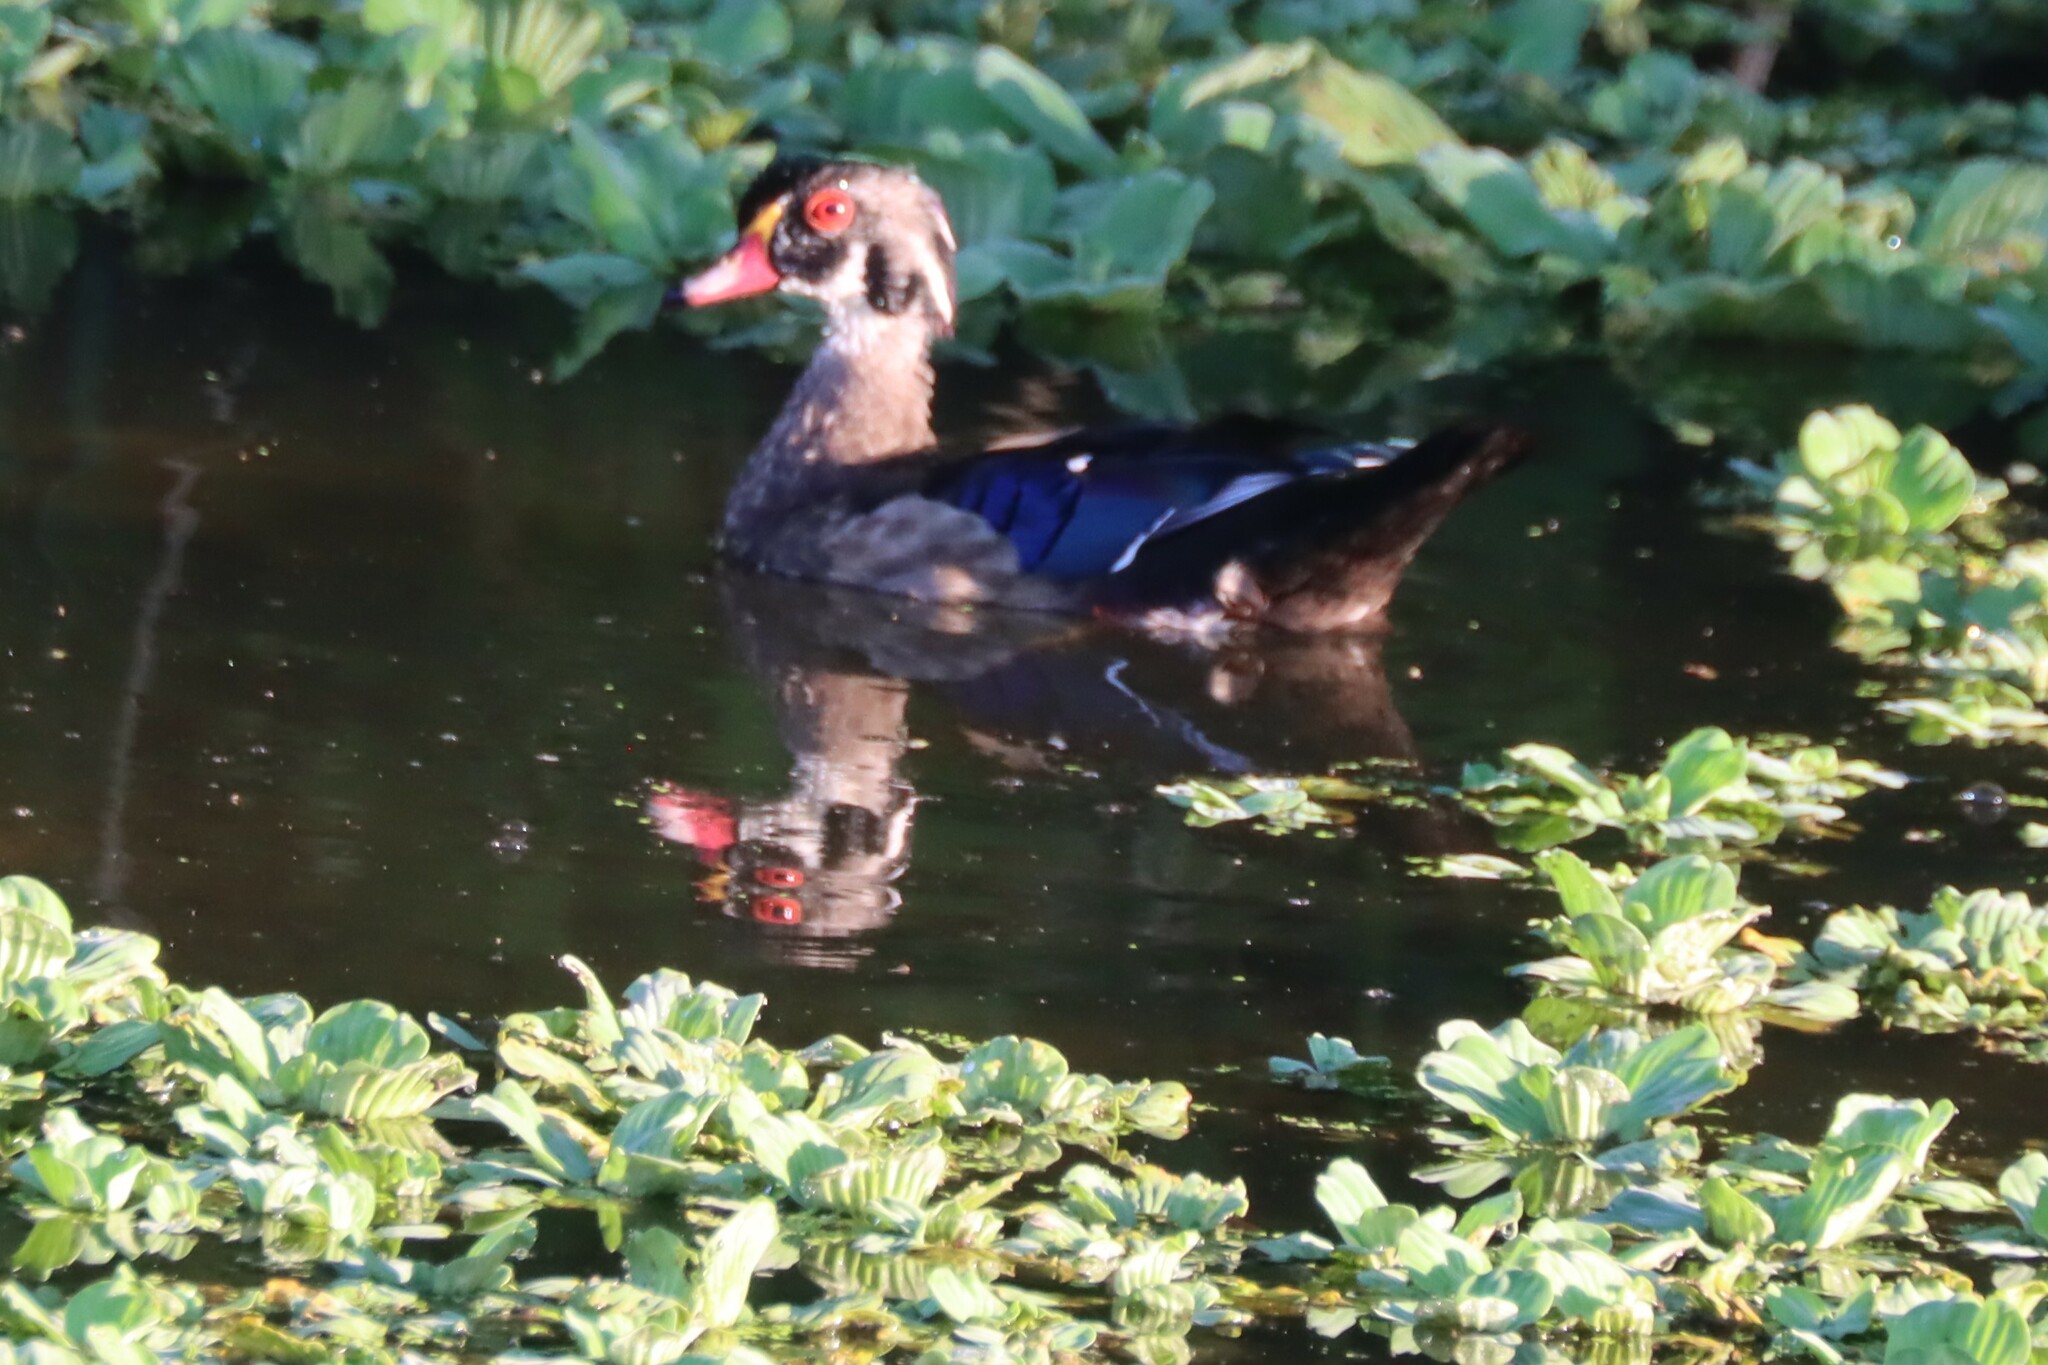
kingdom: Animalia
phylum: Chordata
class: Aves
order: Anseriformes
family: Anatidae
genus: Aix
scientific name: Aix sponsa
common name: Wood duck
